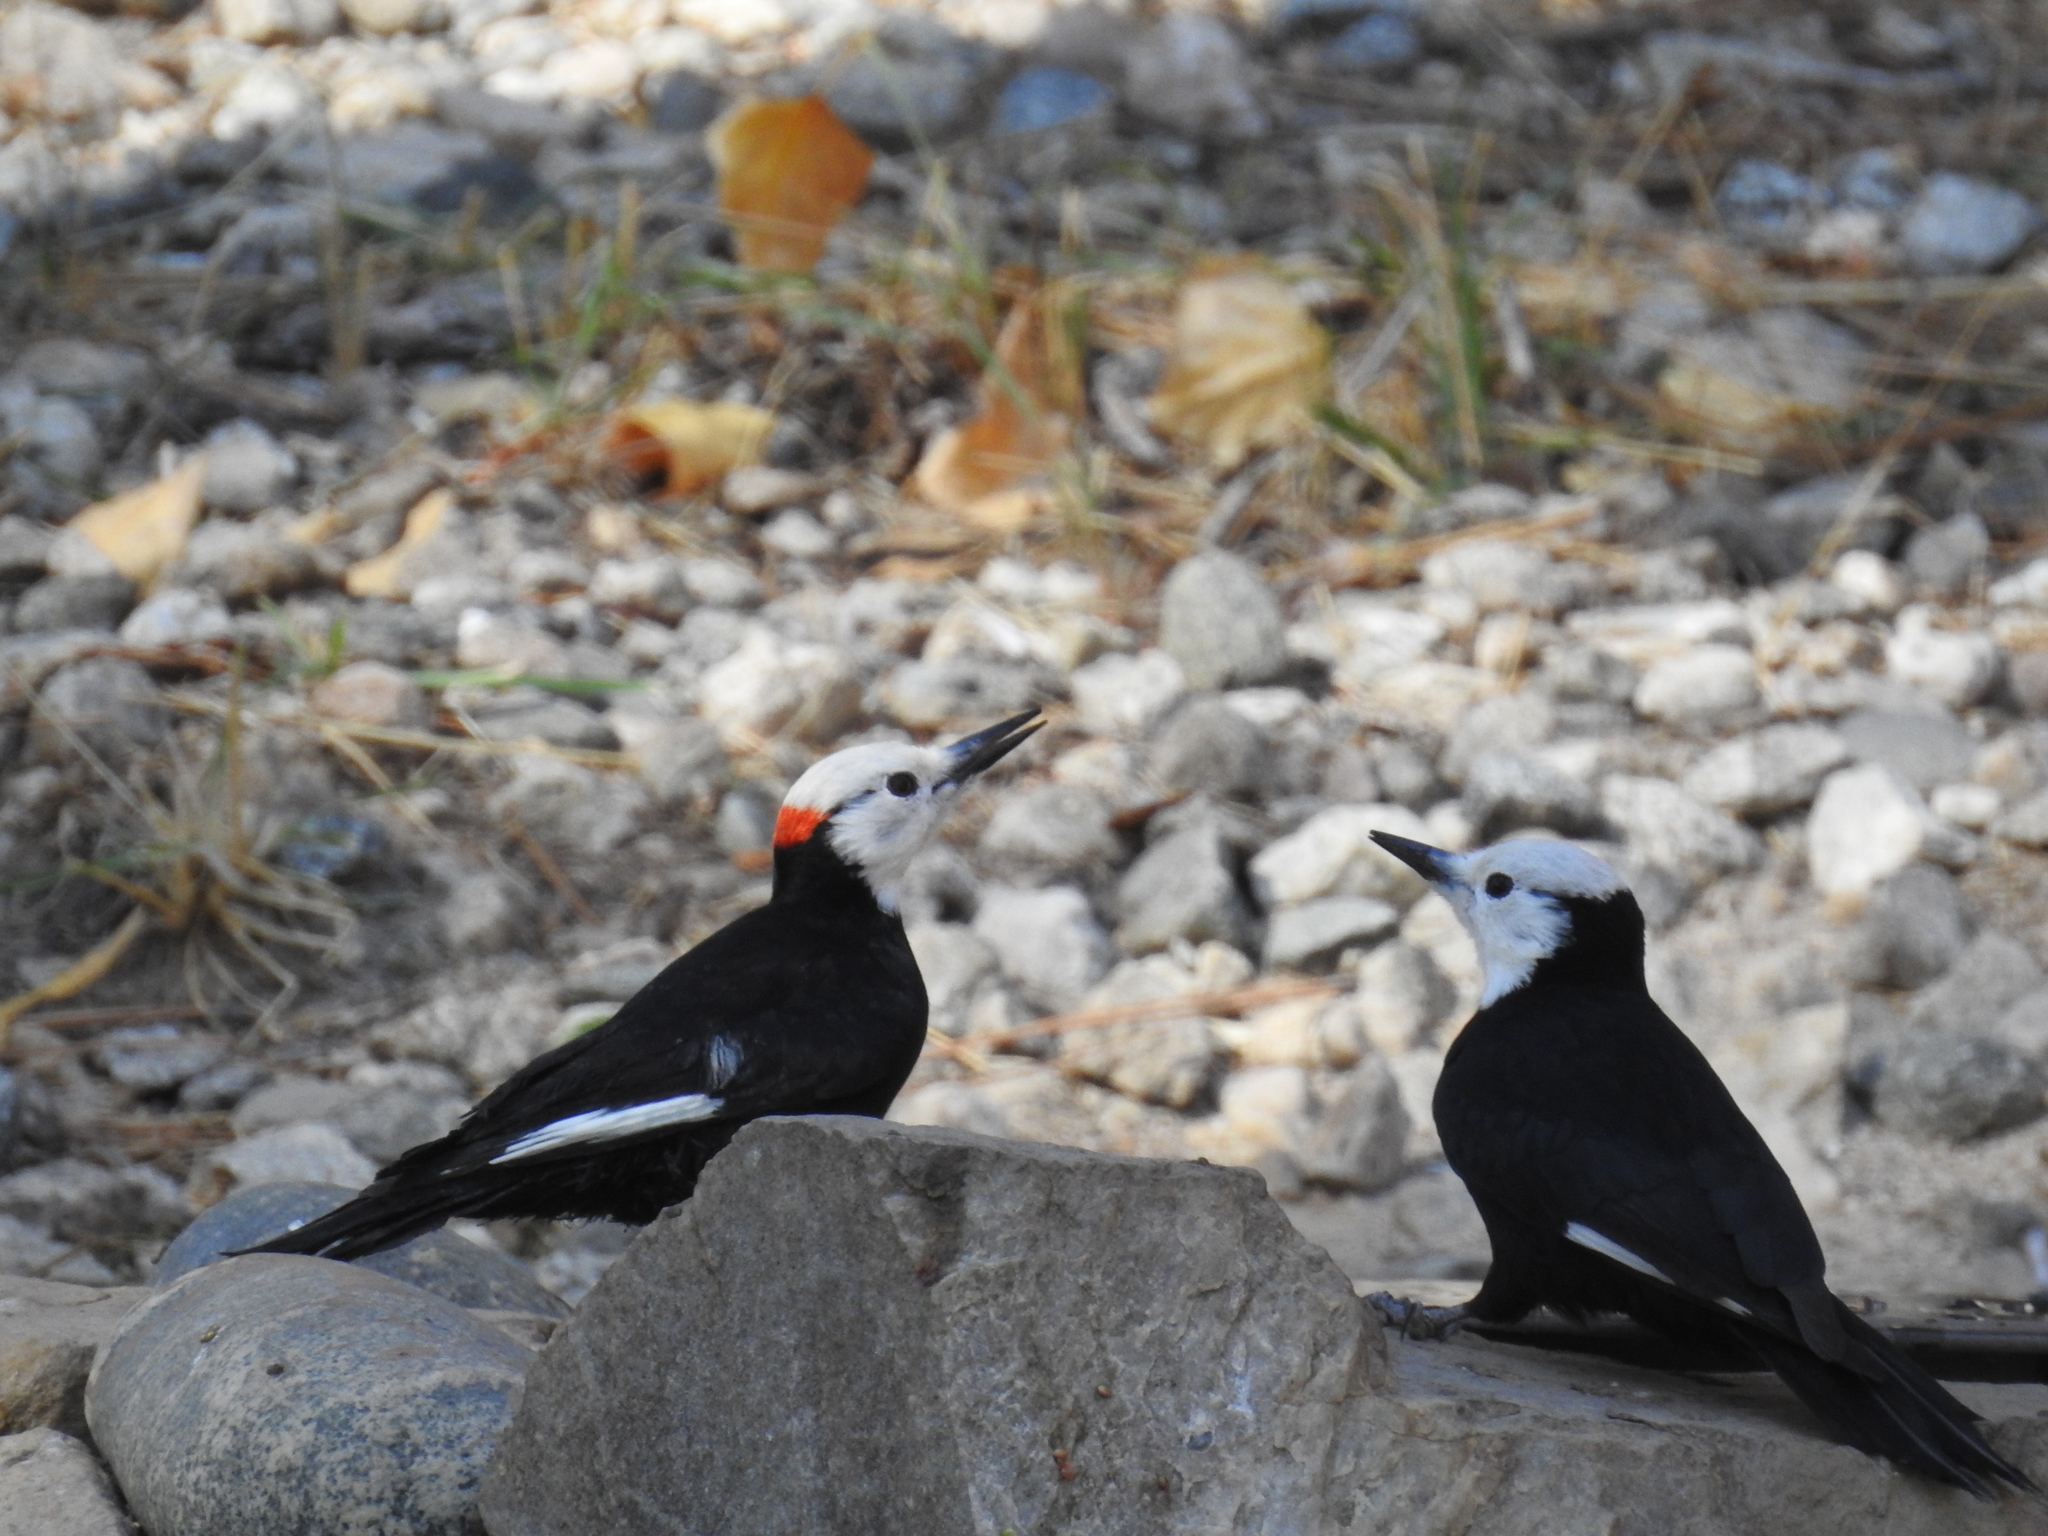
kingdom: Animalia
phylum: Chordata
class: Aves
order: Piciformes
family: Picidae
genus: Leuconotopicus
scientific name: Leuconotopicus albolarvatus
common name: White-headed woodpecker
